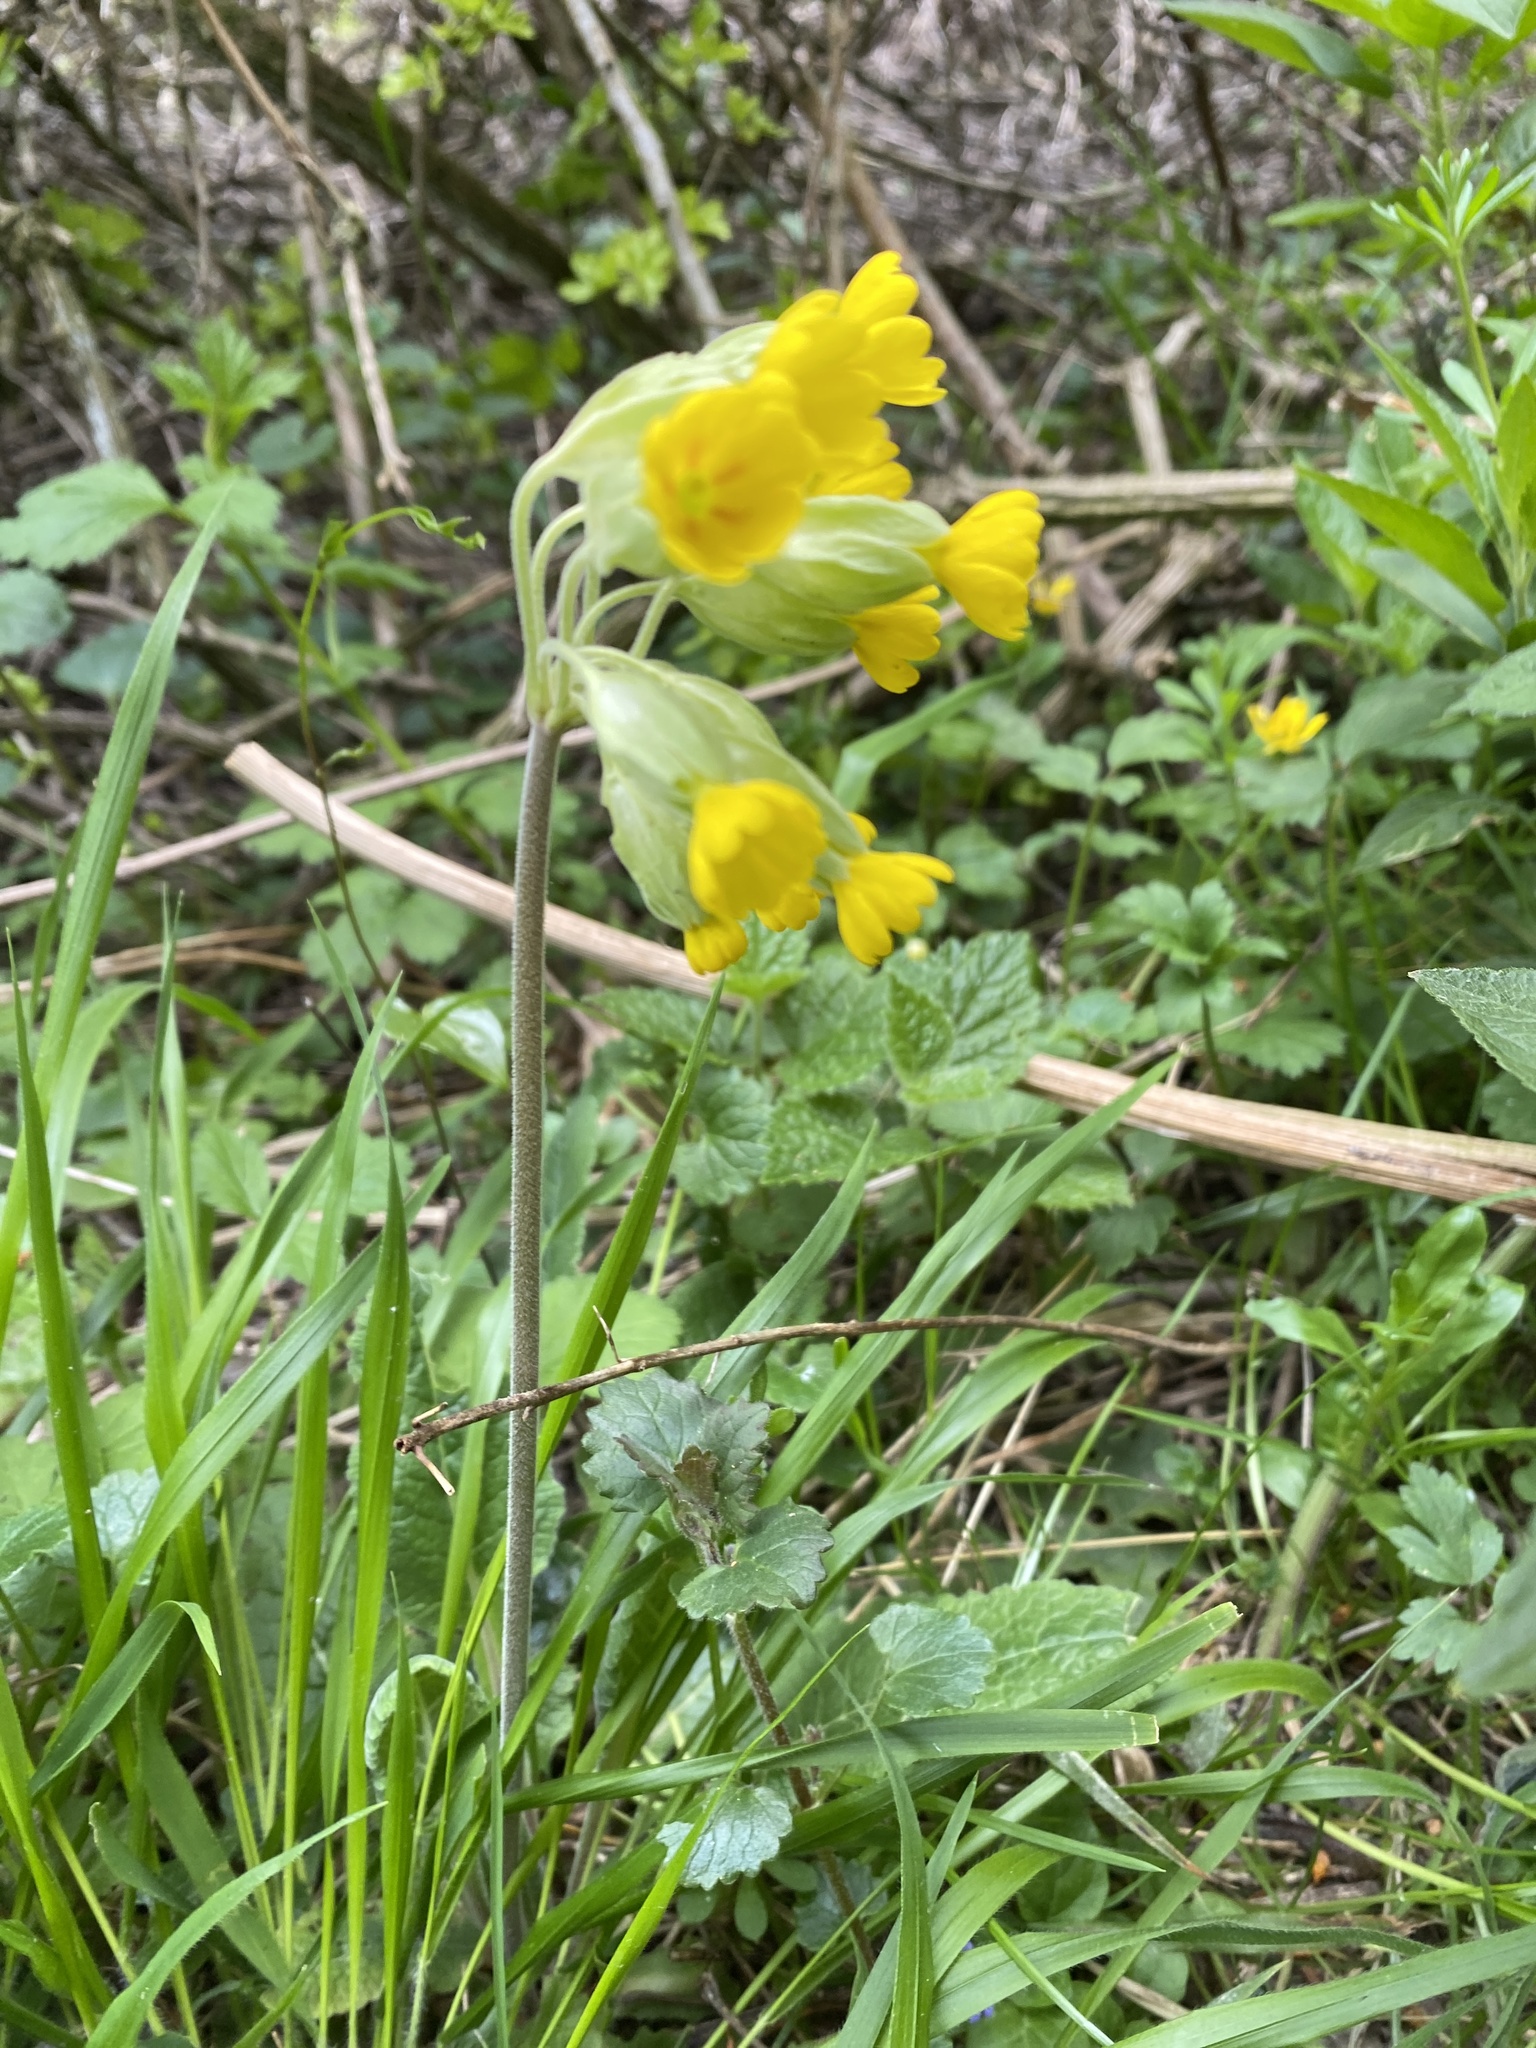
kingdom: Plantae
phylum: Tracheophyta
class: Magnoliopsida
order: Ericales
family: Primulaceae
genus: Primula
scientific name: Primula veris
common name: Cowslip
